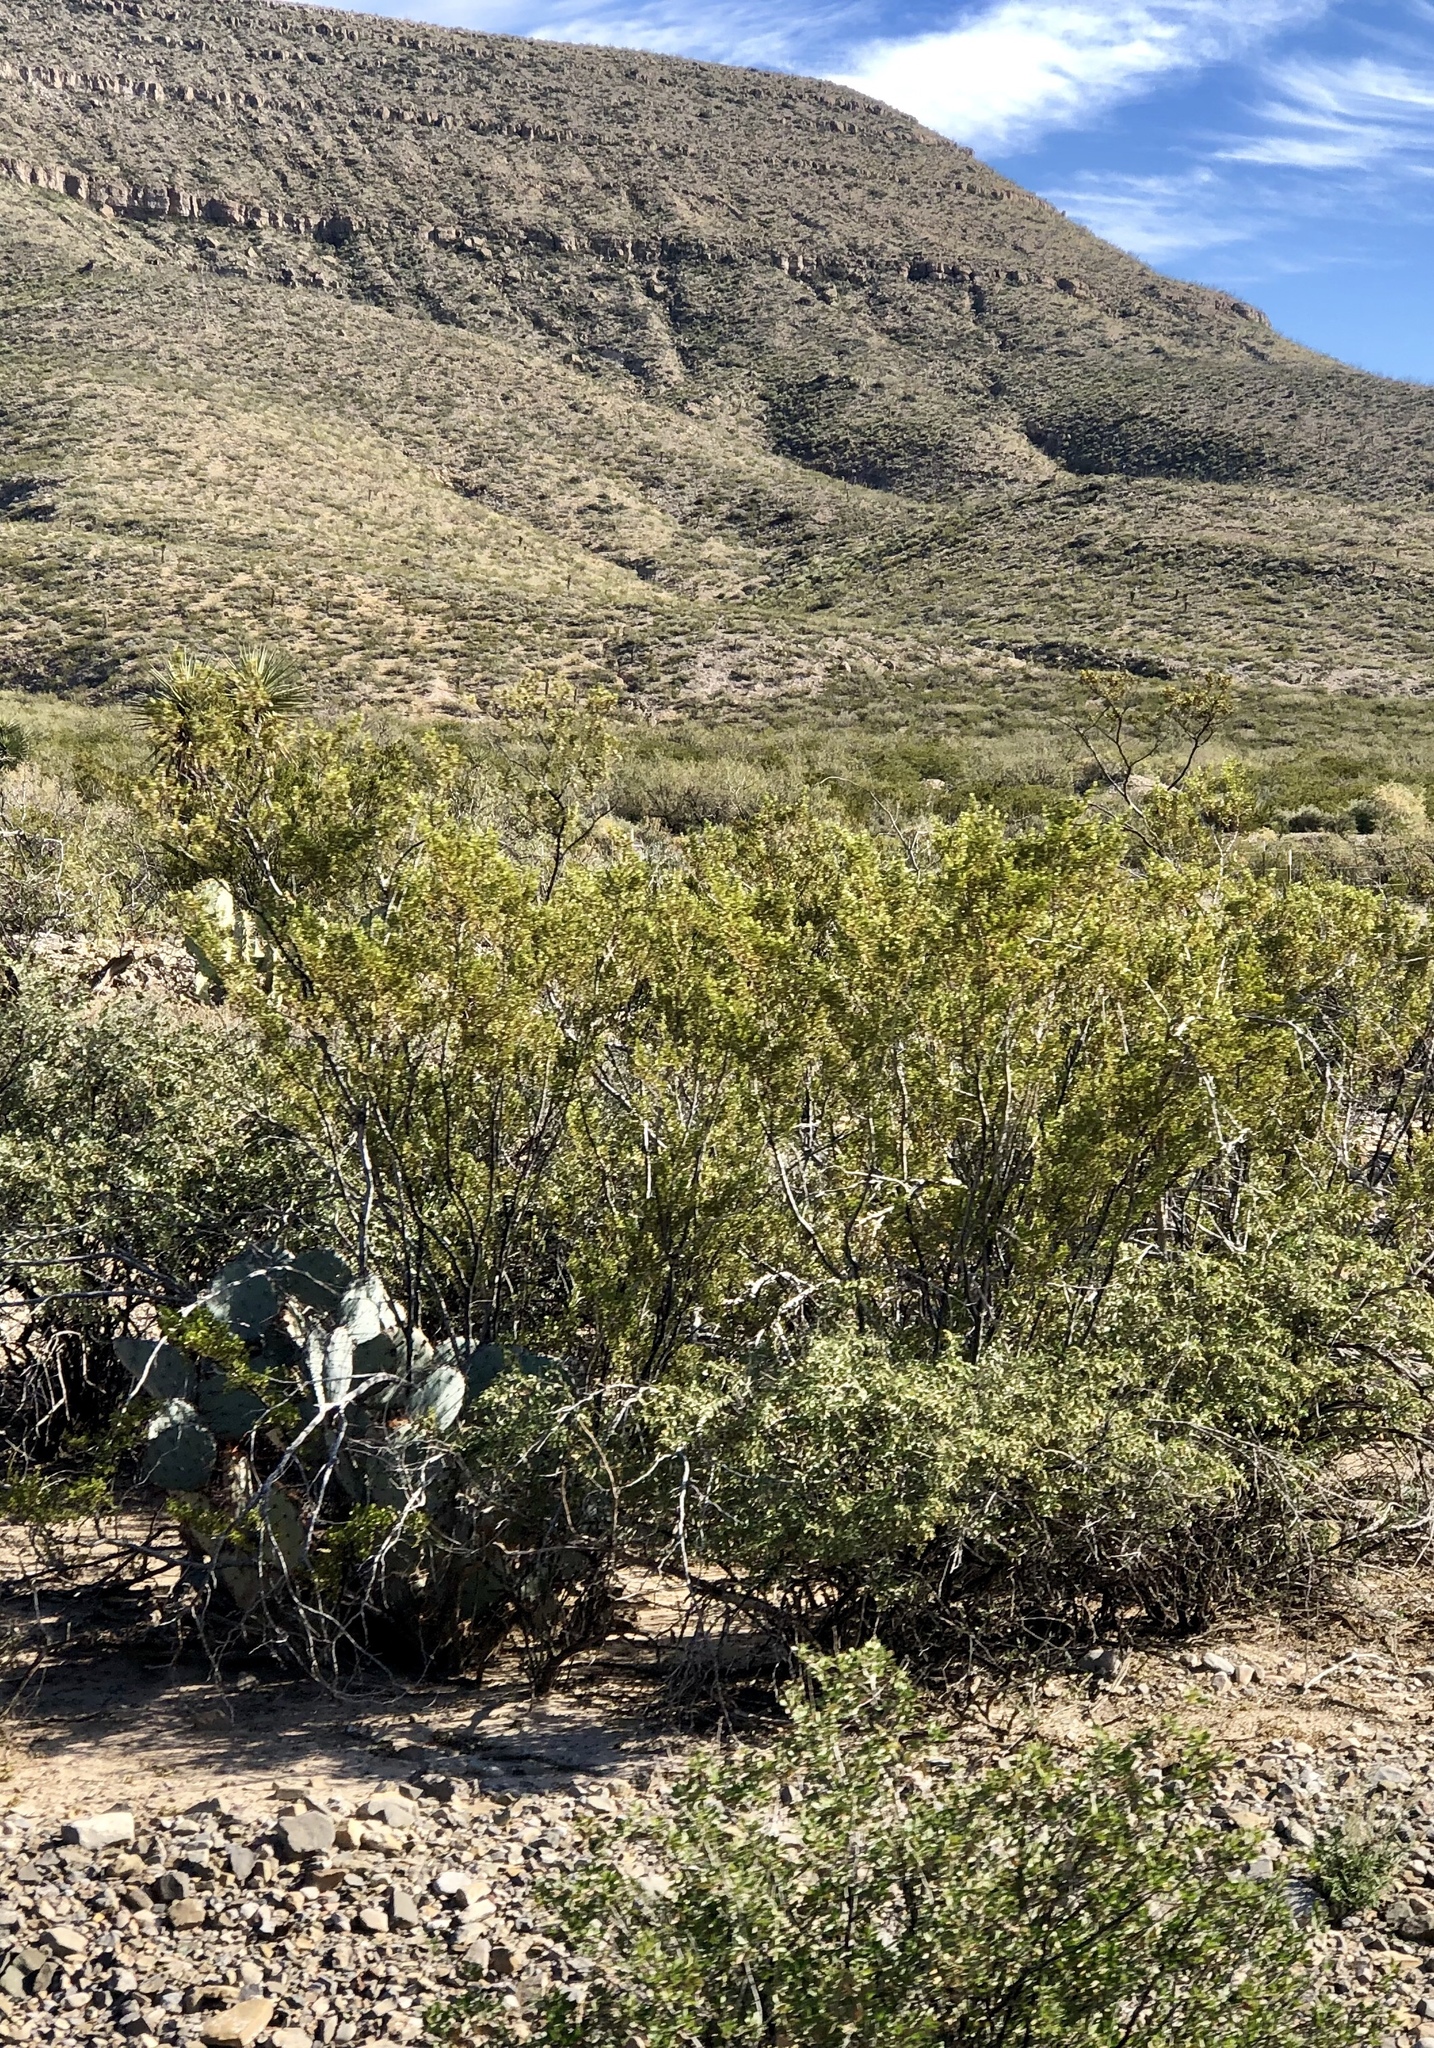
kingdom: Plantae
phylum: Tracheophyta
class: Magnoliopsida
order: Zygophyllales
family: Zygophyllaceae
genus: Larrea
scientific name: Larrea tridentata
